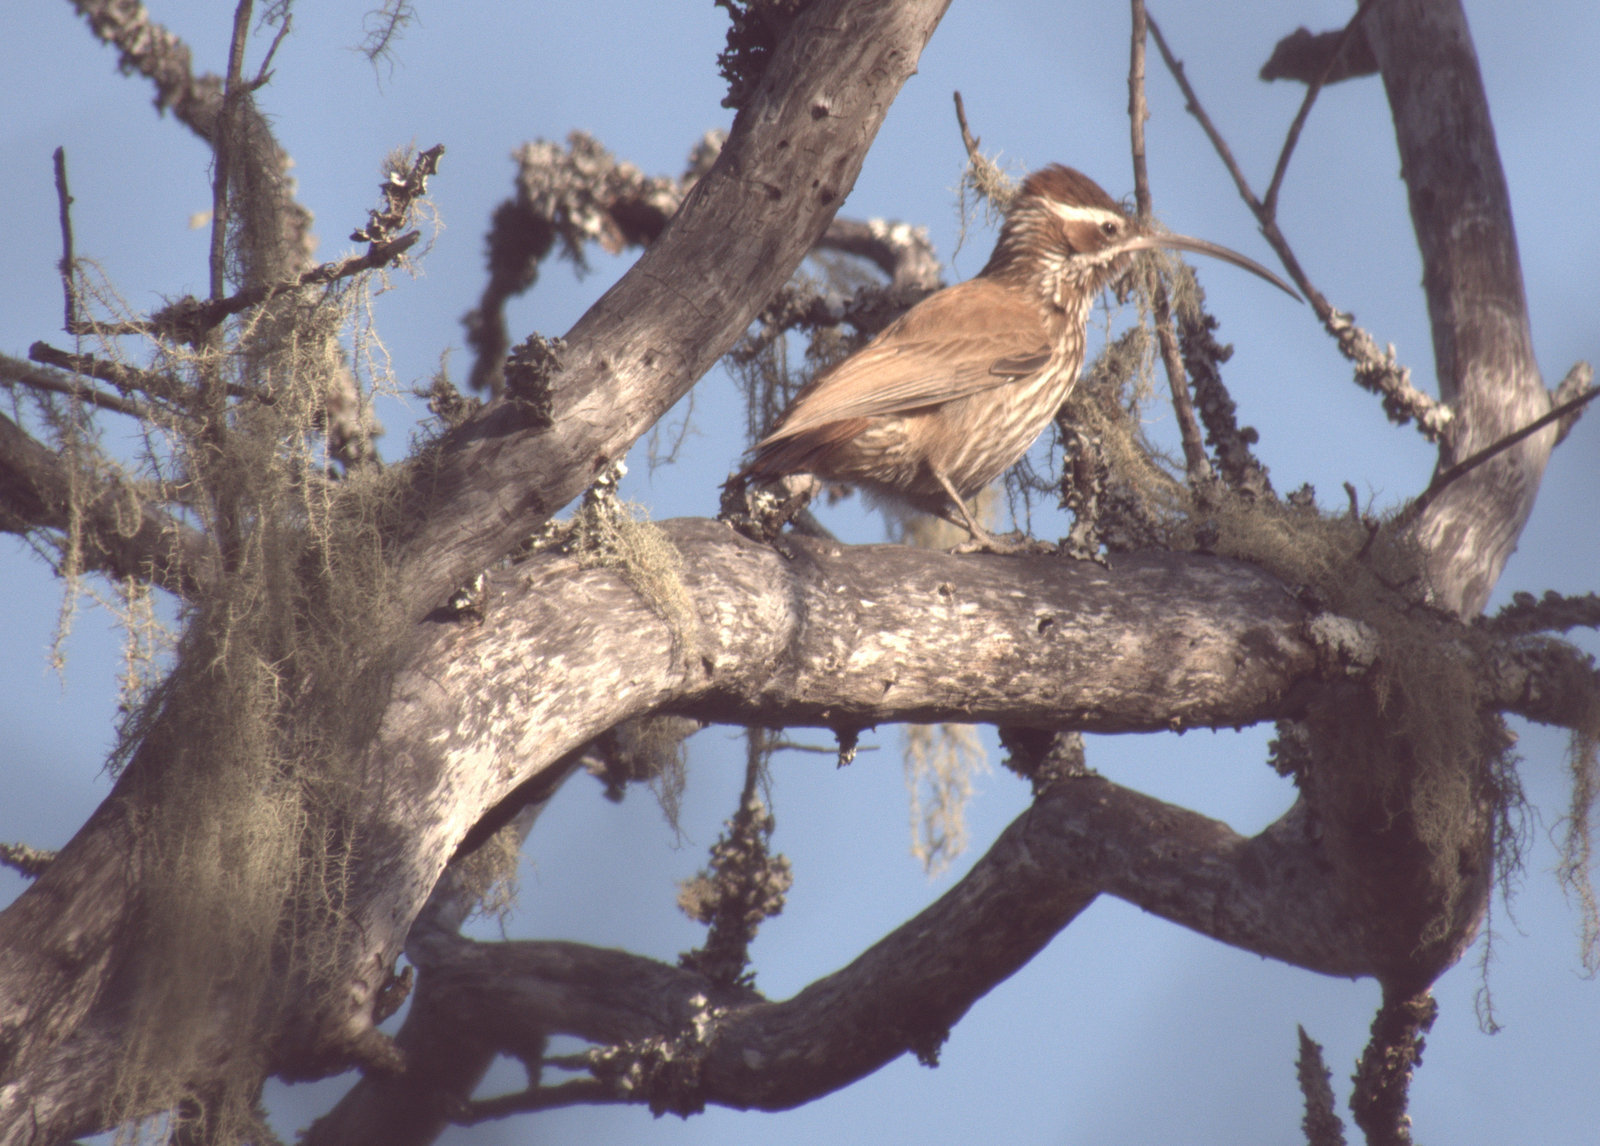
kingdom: Animalia
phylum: Chordata
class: Aves
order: Passeriformes
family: Furnariidae
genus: Drymornis
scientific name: Drymornis bridgesii
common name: Scimitar-billed woodcreeper
